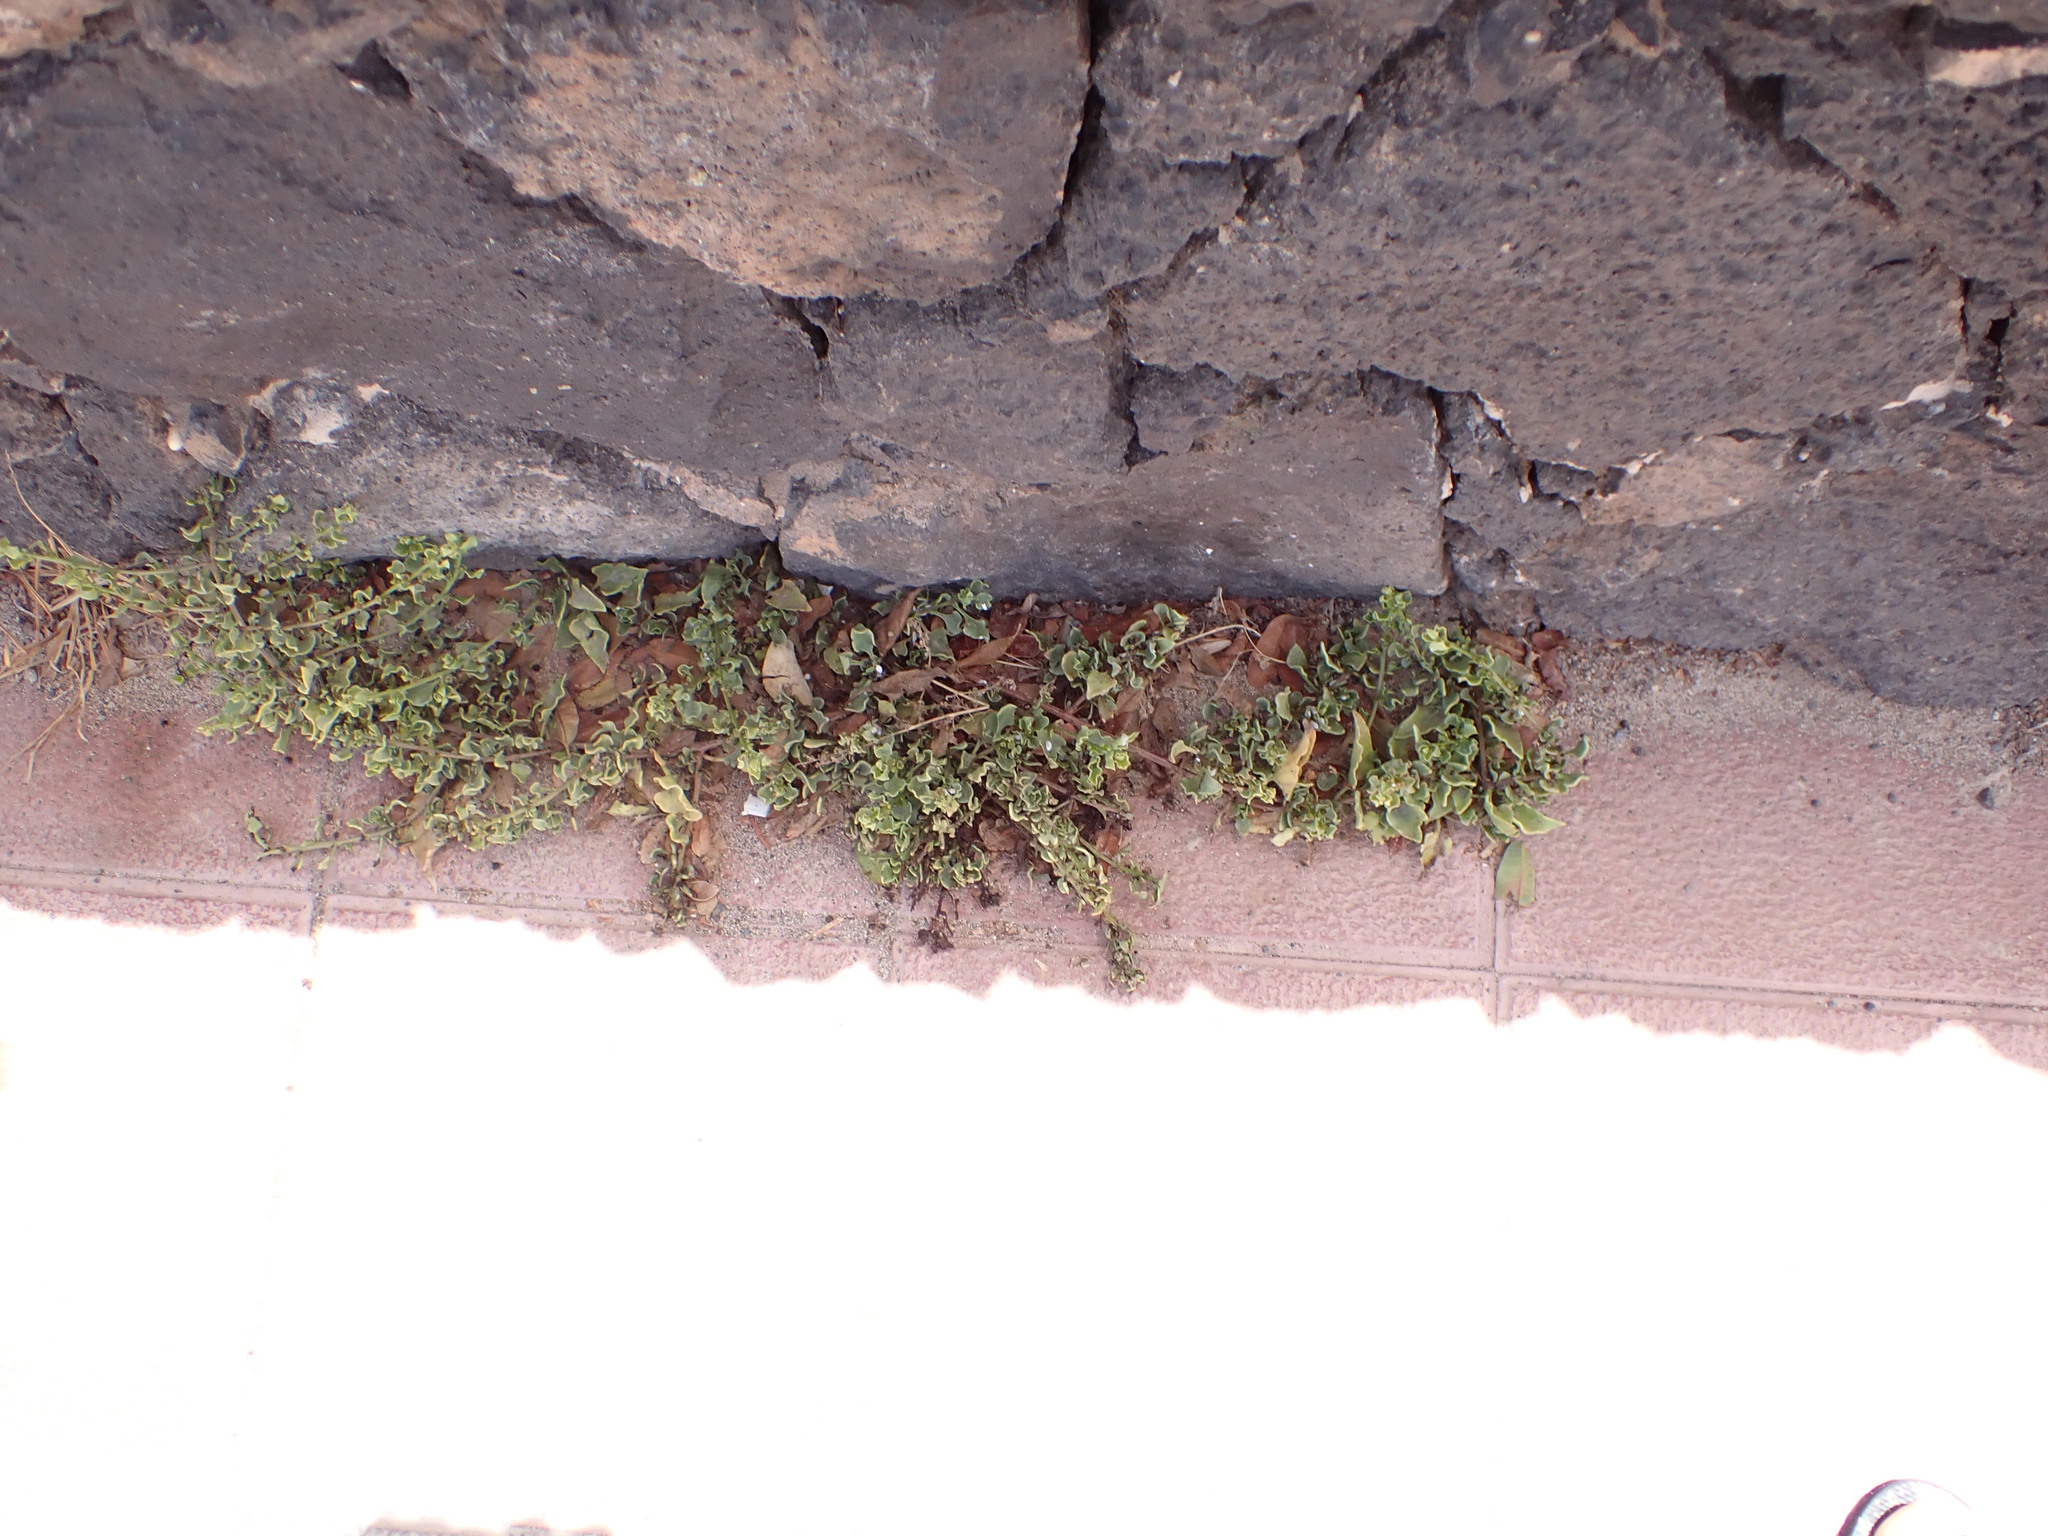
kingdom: Plantae
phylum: Tracheophyta
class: Magnoliopsida
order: Caryophyllales
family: Amaranthaceae
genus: Patellifolia
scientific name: Patellifolia procumbens
